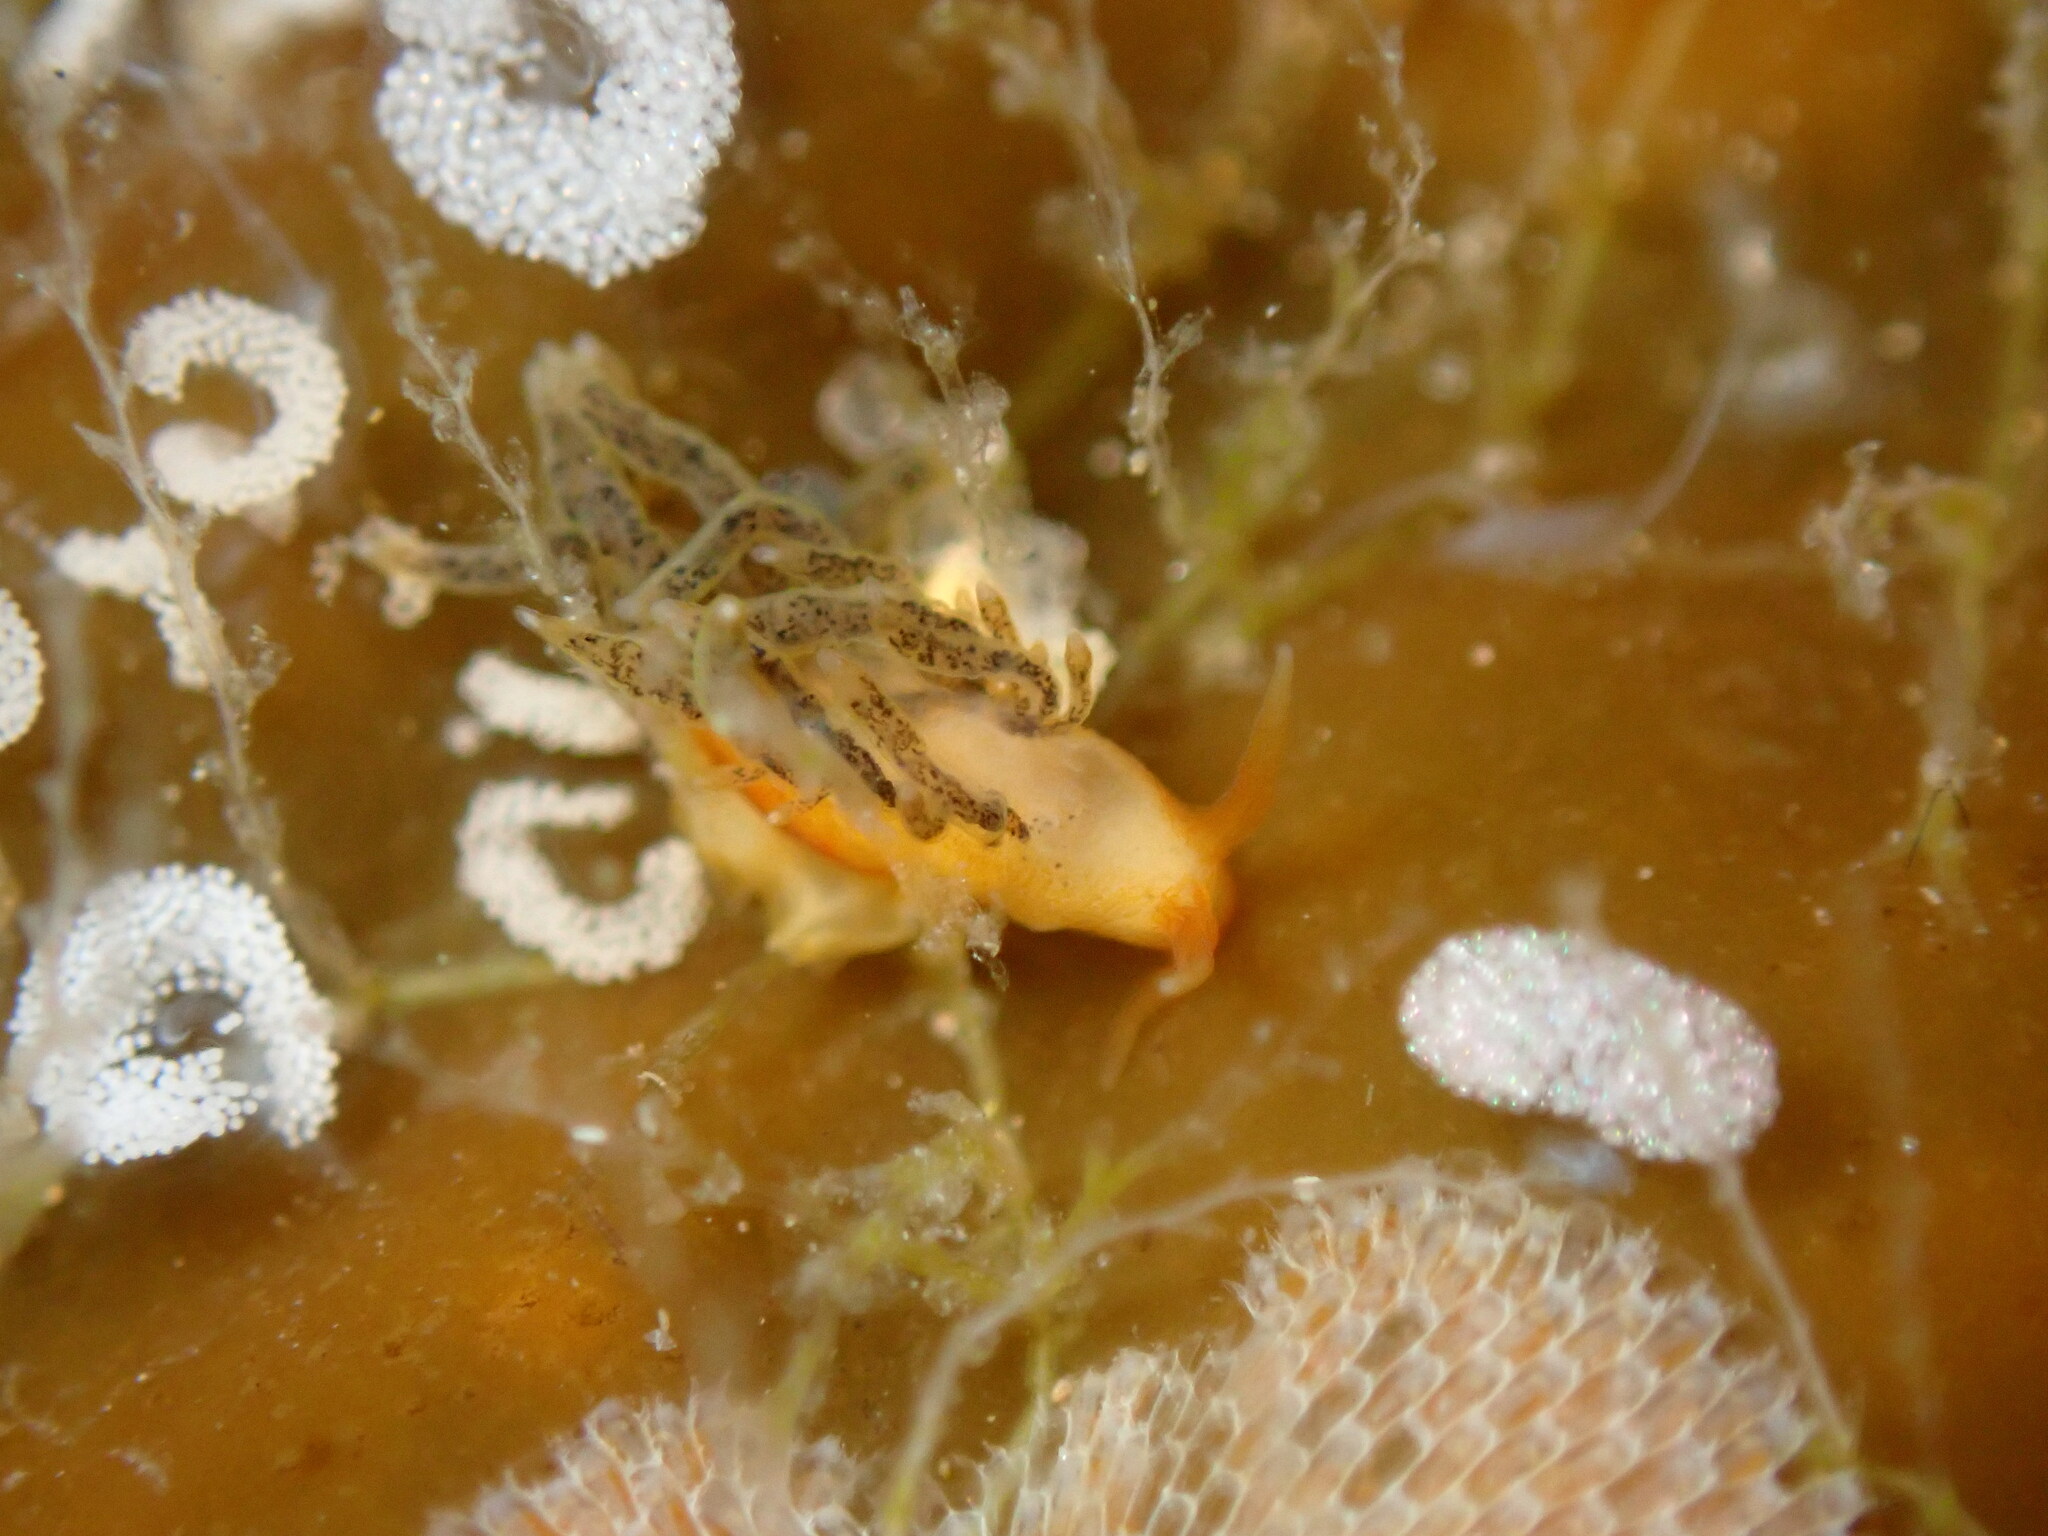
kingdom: Animalia
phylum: Mollusca
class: Gastropoda
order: Nudibranchia
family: Cuthonidae
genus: Cuthona
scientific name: Cuthona phoenix
